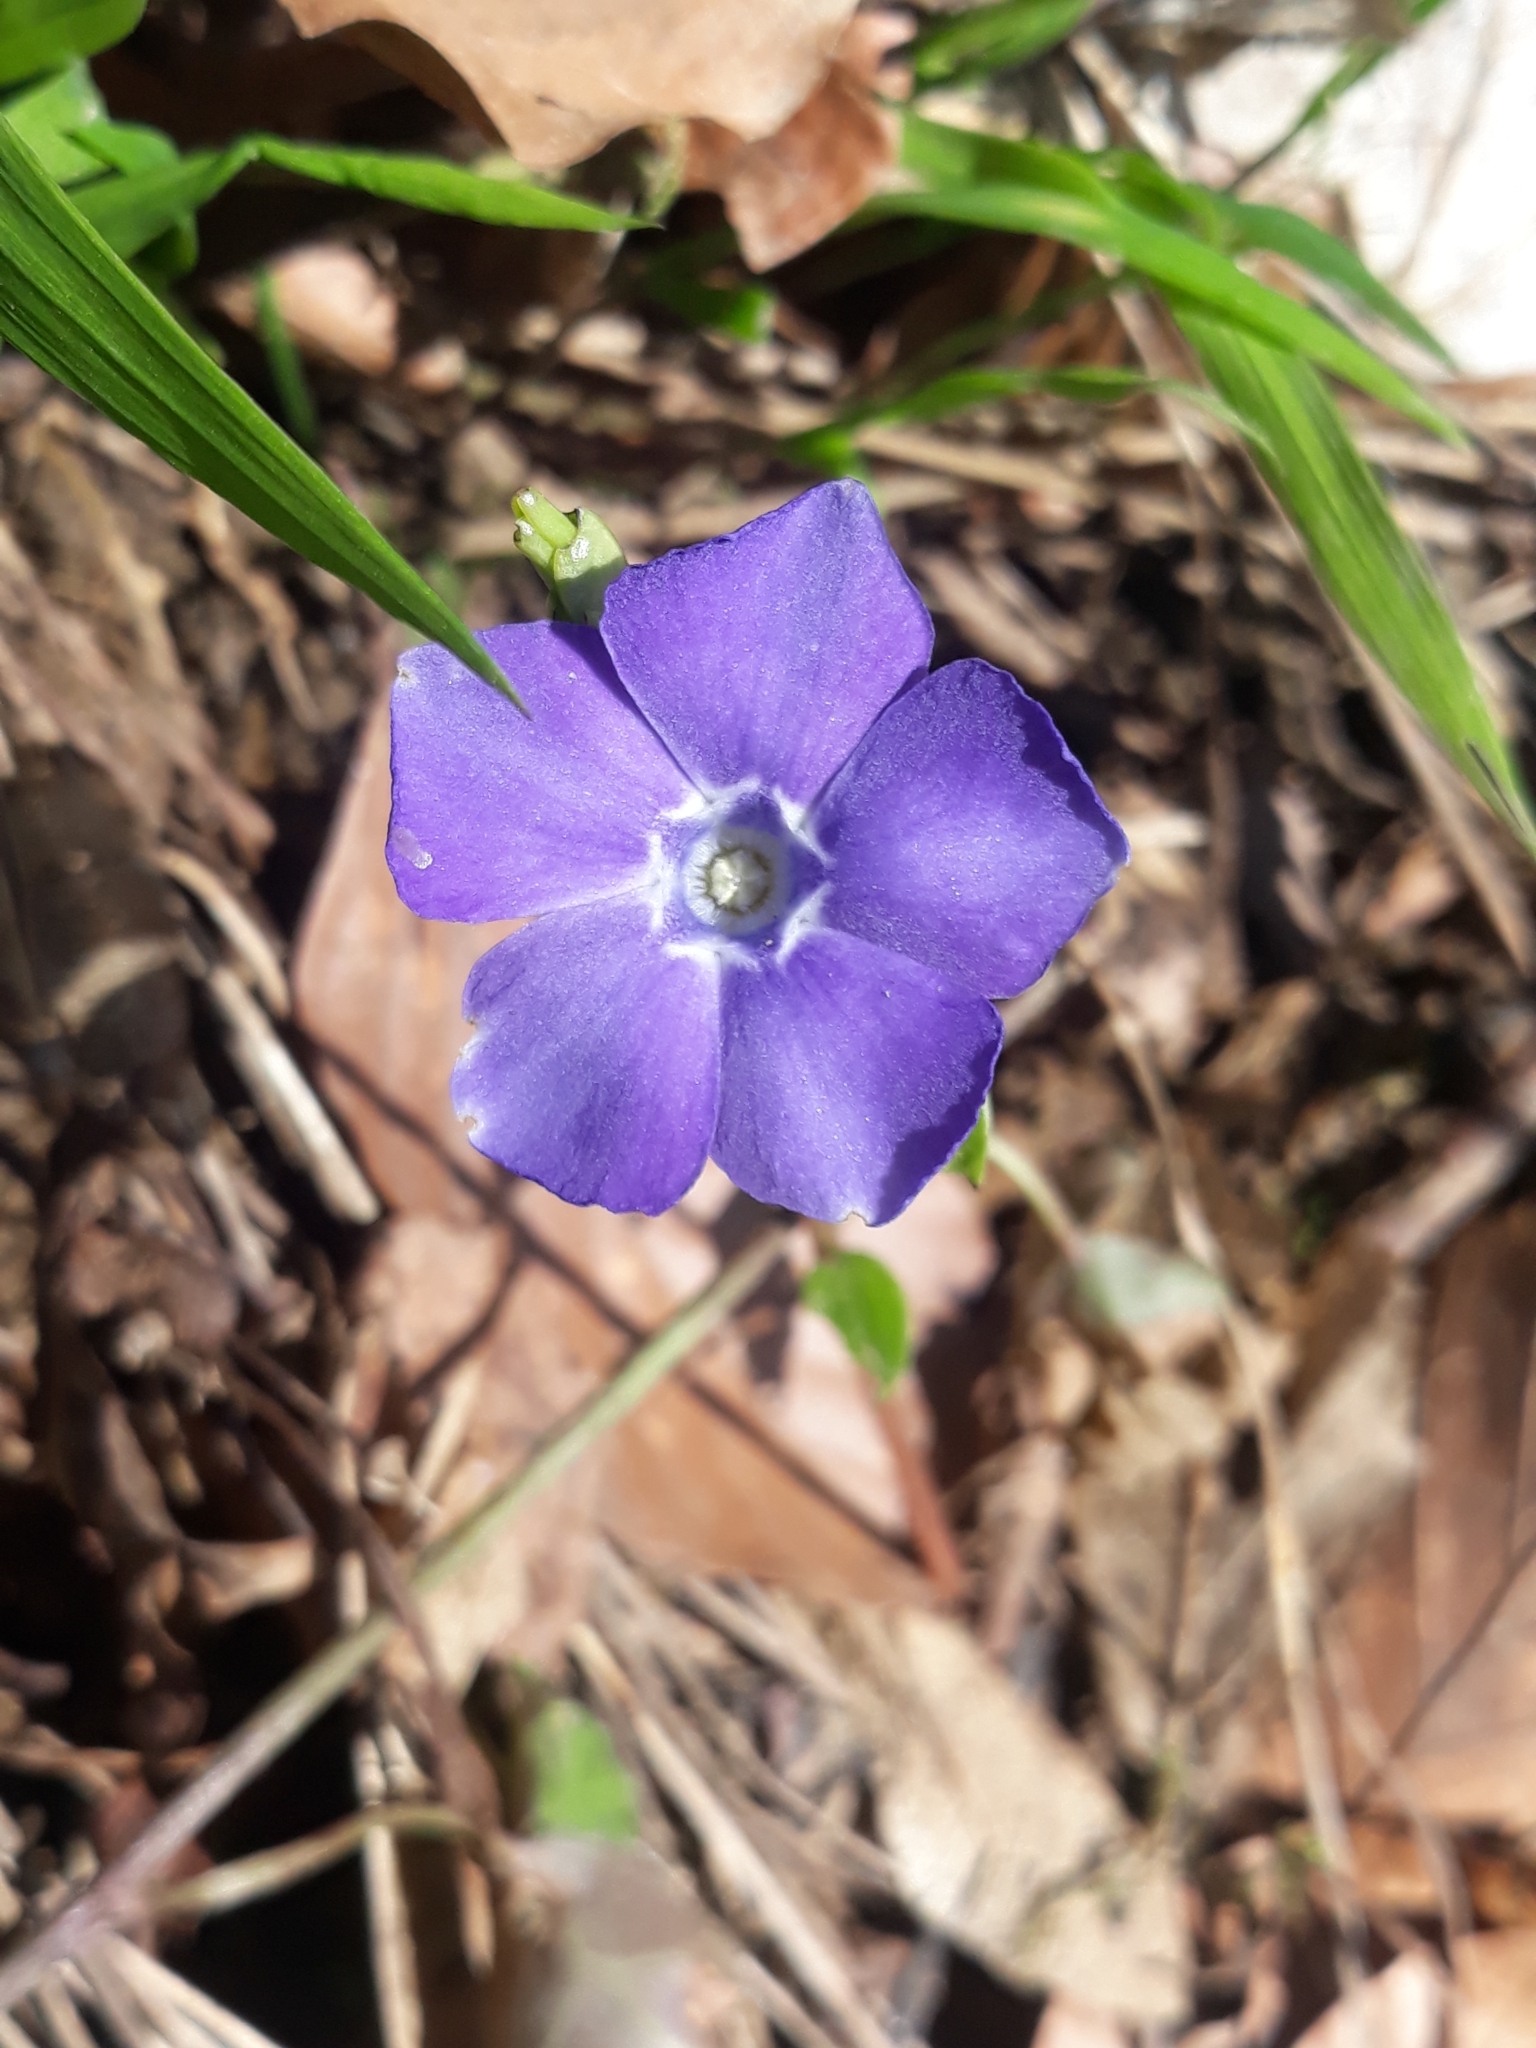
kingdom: Plantae
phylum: Tracheophyta
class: Magnoliopsida
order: Gentianales
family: Apocynaceae
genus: Vinca
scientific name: Vinca minor
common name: Lesser periwinkle
